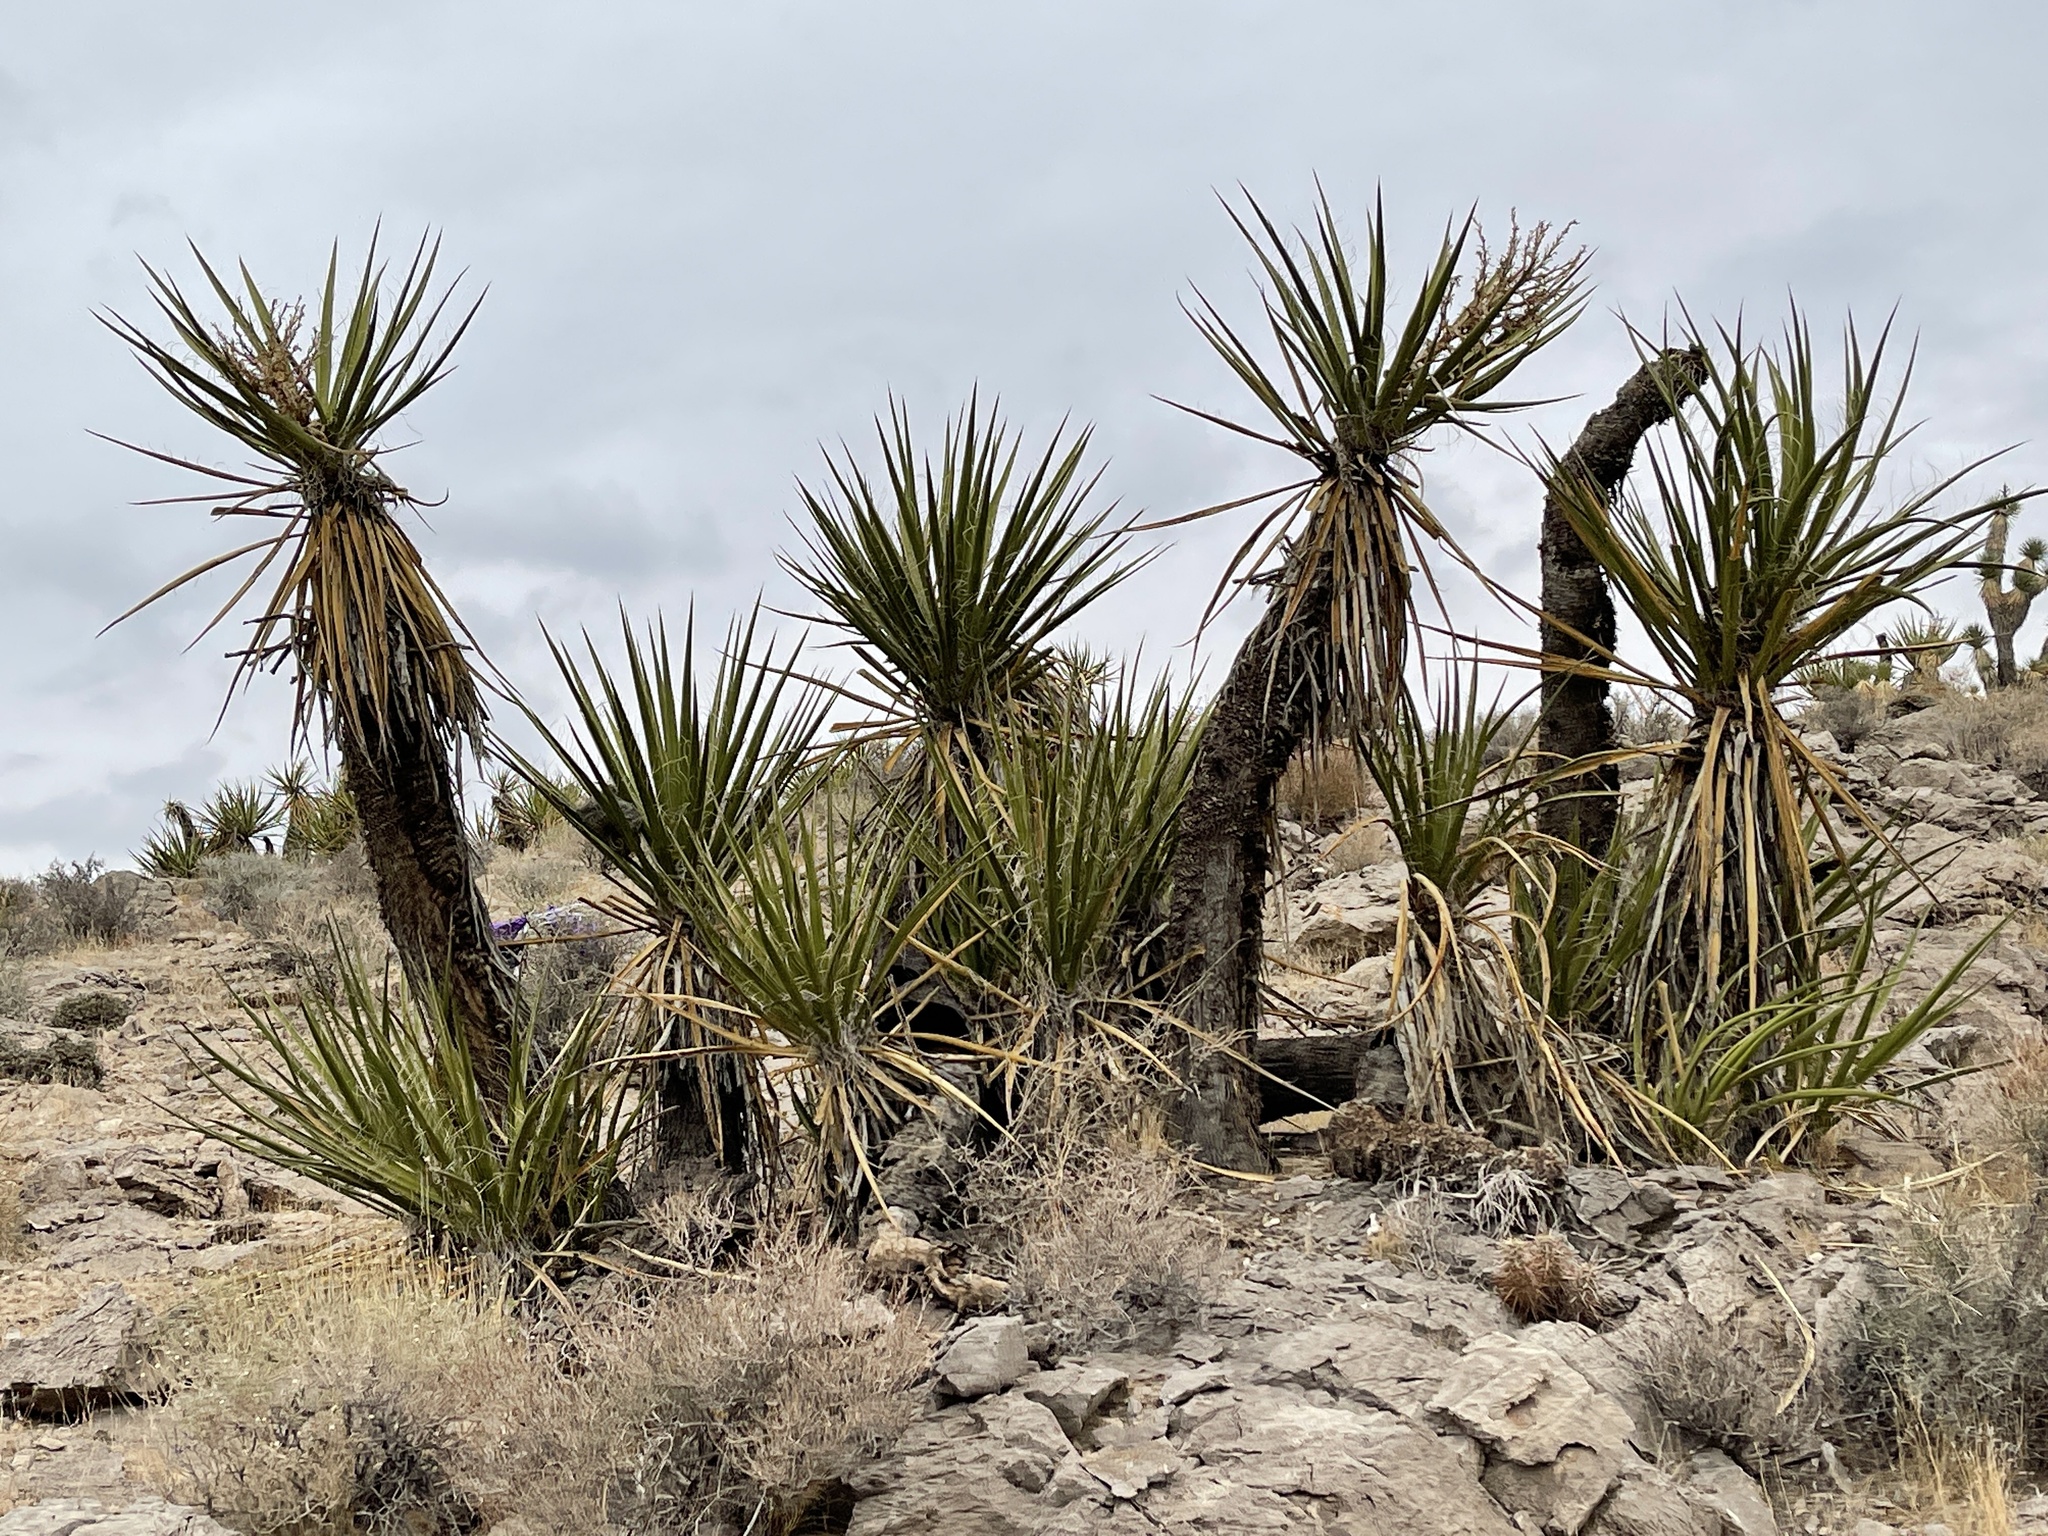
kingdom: Plantae
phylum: Tracheophyta
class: Liliopsida
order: Asparagales
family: Asparagaceae
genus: Yucca
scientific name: Yucca schidigera
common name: Mojave yucca
